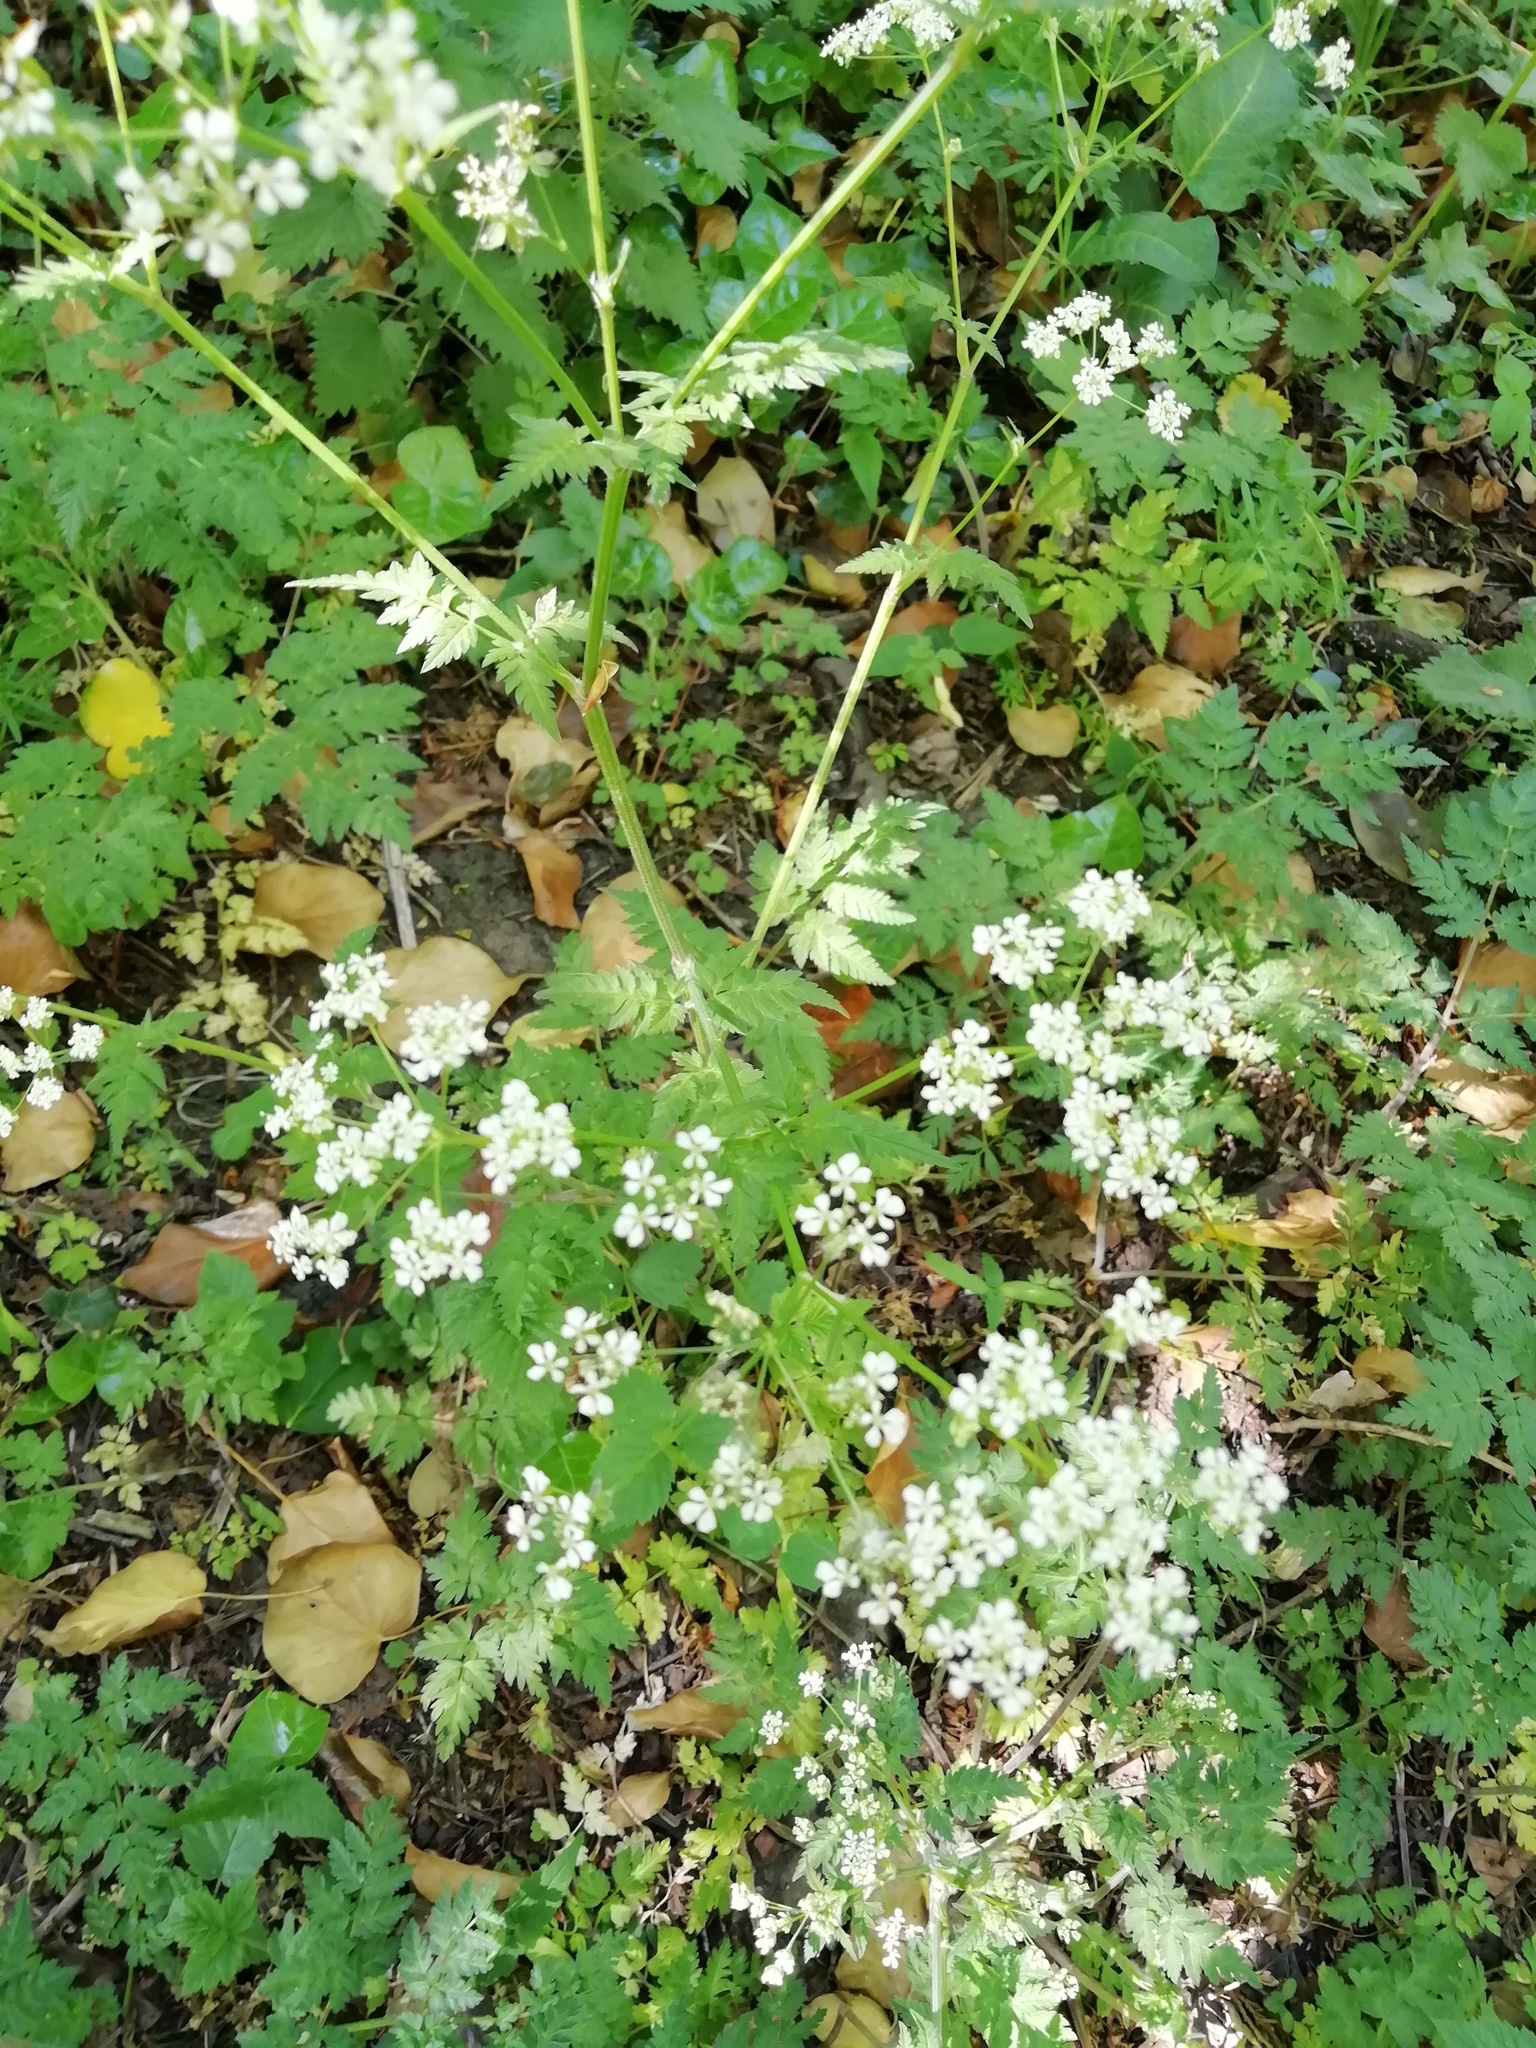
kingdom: Plantae
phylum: Tracheophyta
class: Magnoliopsida
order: Apiales
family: Apiaceae
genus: Anthriscus
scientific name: Anthriscus sylvestris
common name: Cow parsley
